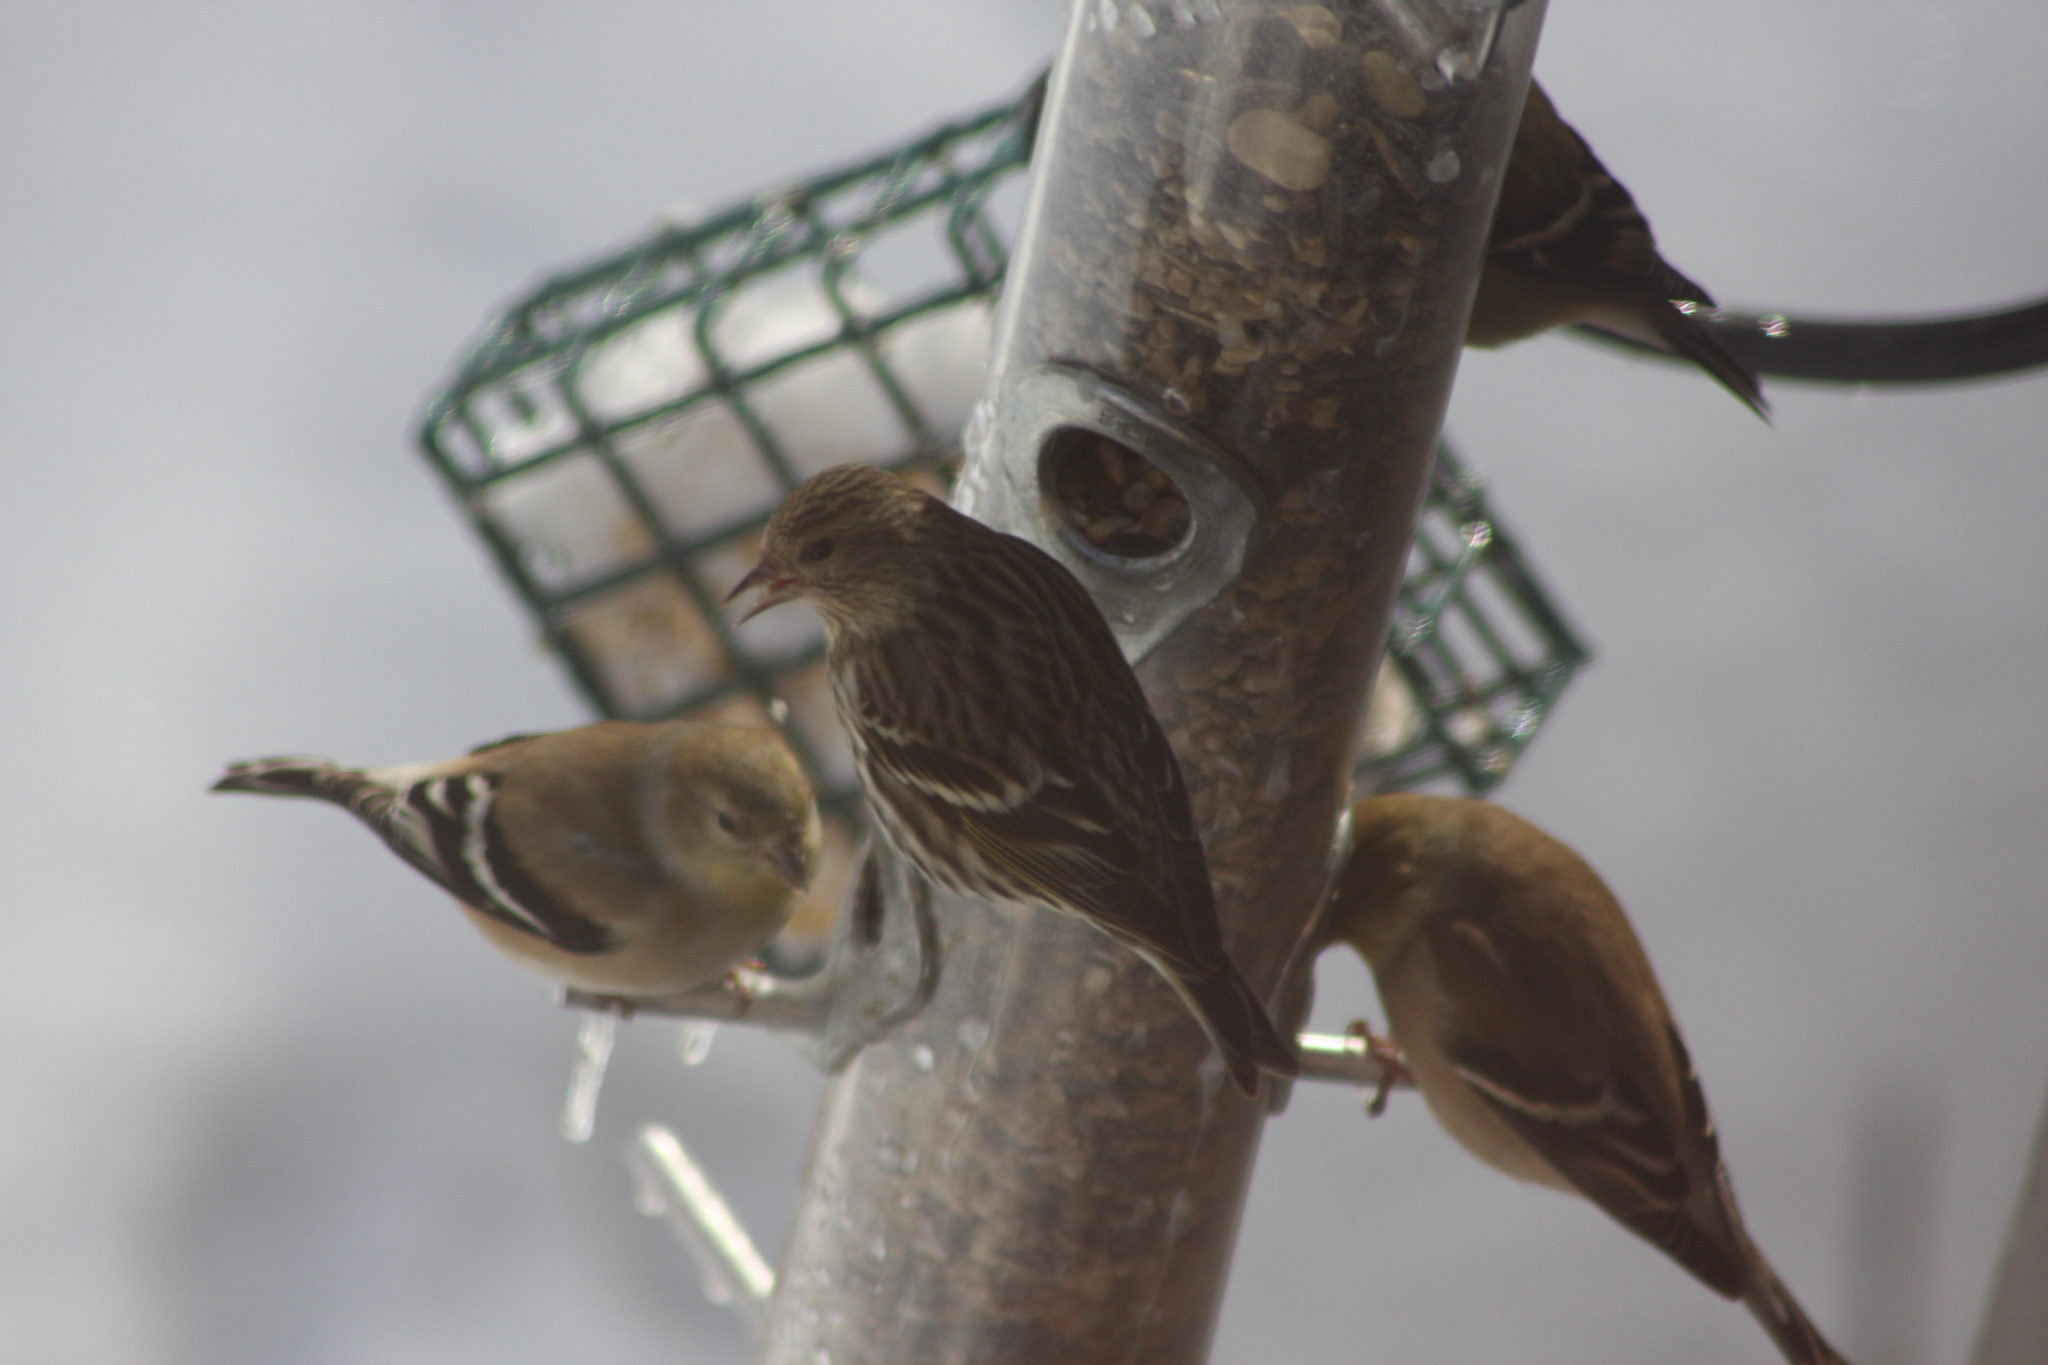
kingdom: Animalia
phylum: Chordata
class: Aves
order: Passeriformes
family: Fringillidae
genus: Spinus
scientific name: Spinus pinus
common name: Pine siskin
